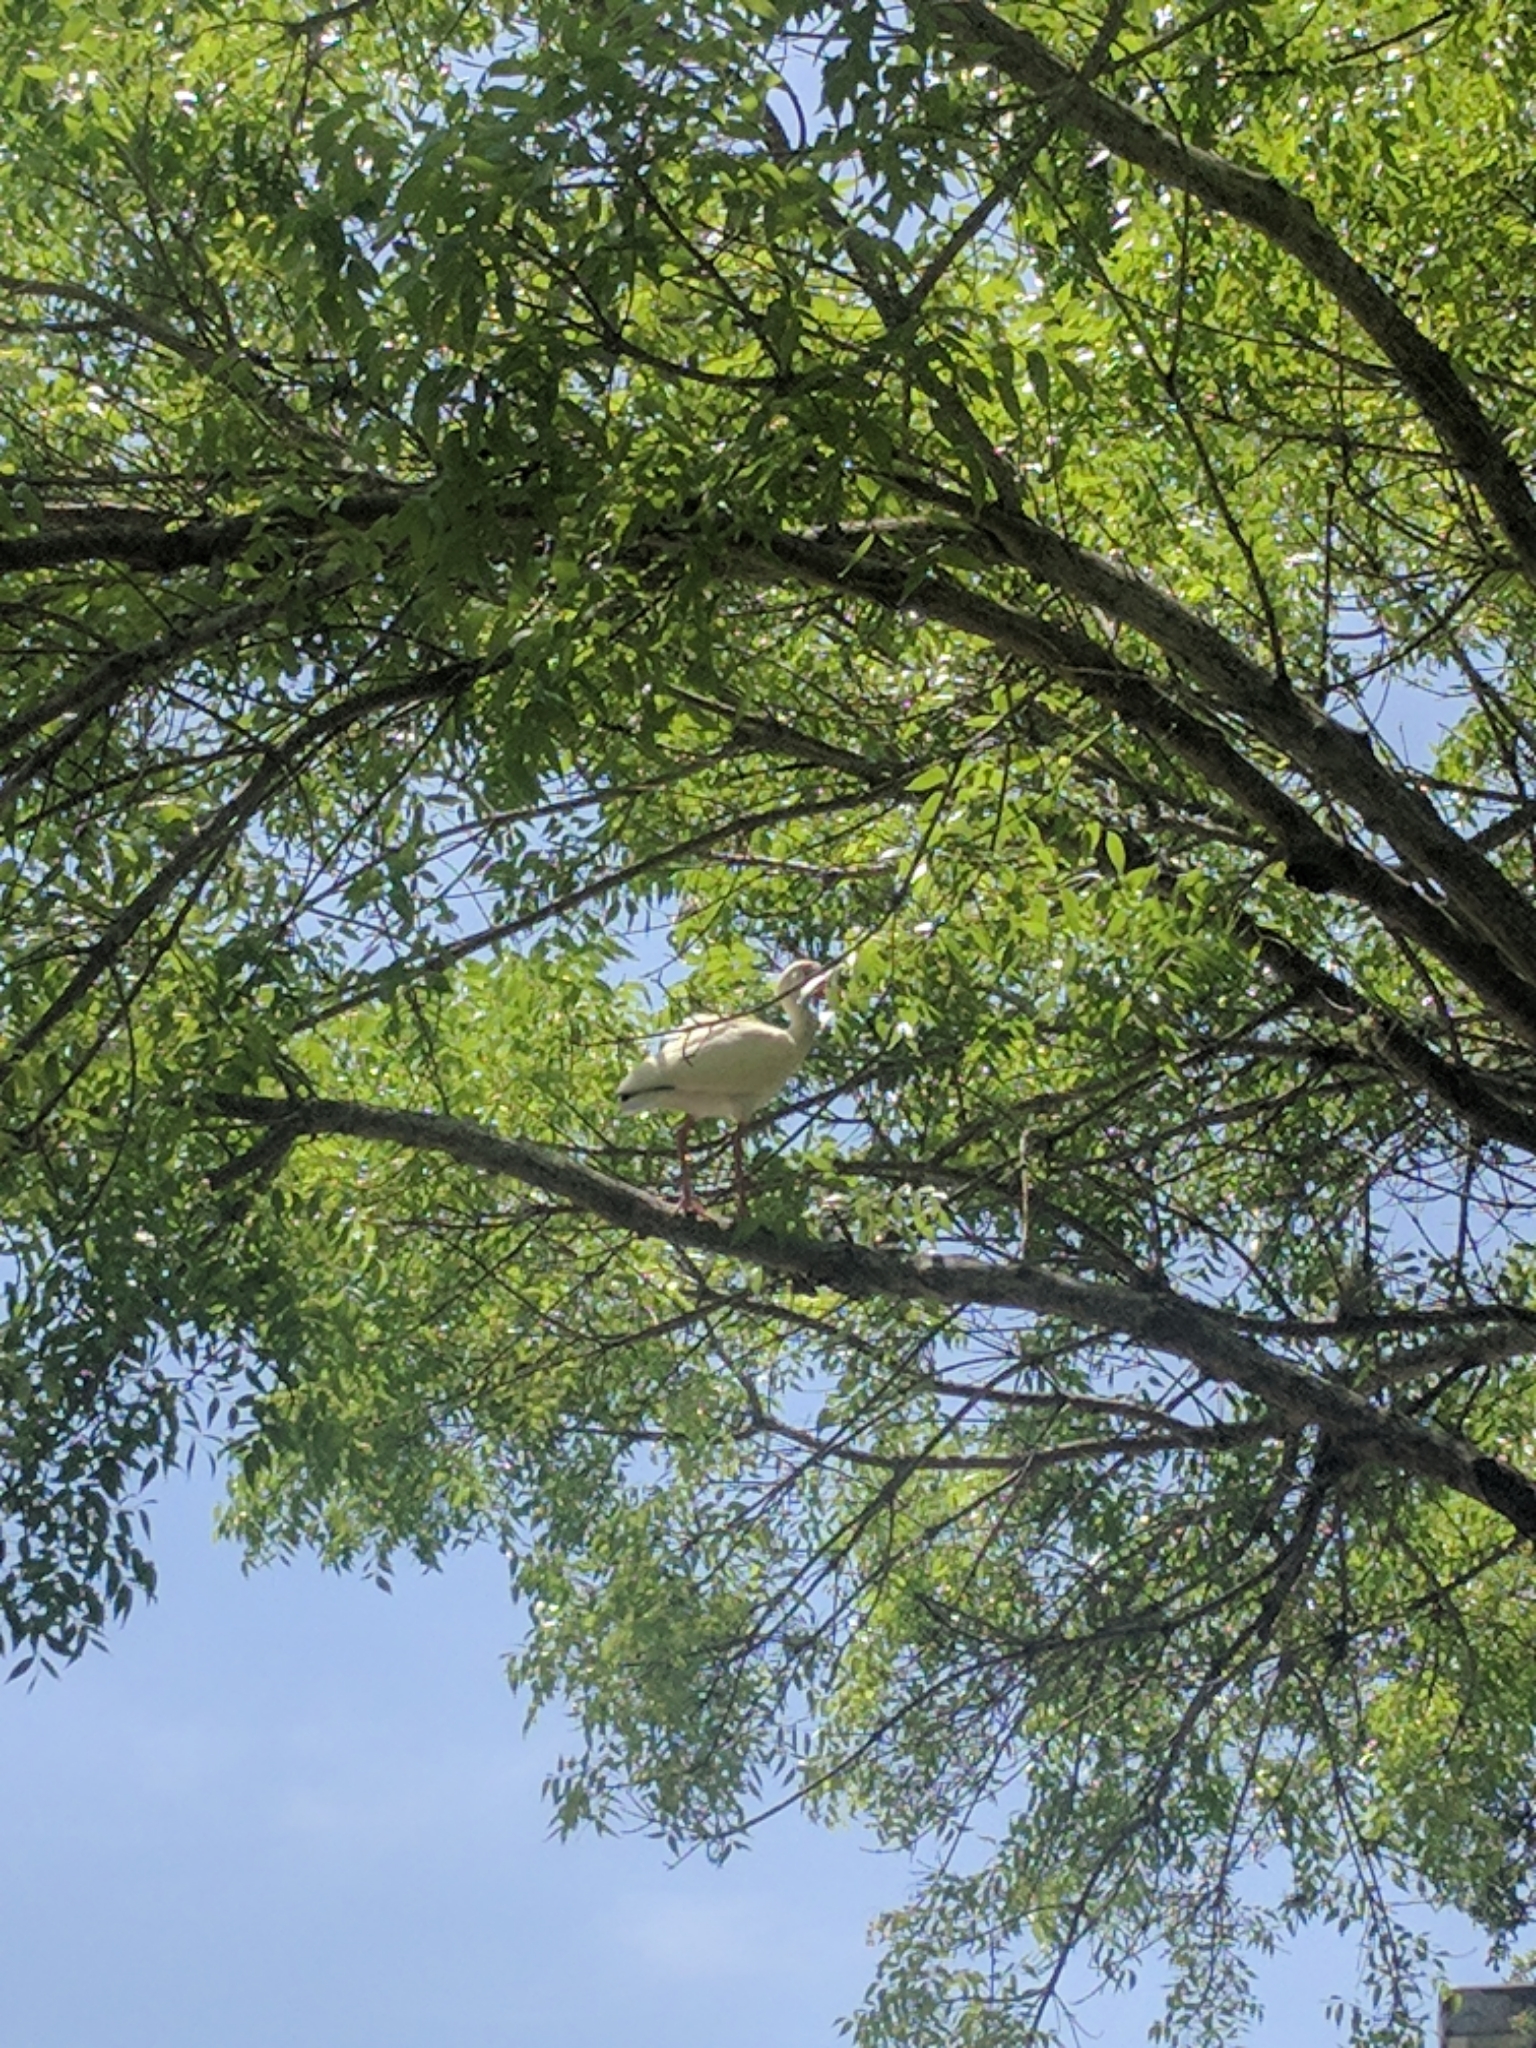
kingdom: Animalia
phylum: Chordata
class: Aves
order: Pelecaniformes
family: Threskiornithidae
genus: Eudocimus
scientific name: Eudocimus albus
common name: White ibis
